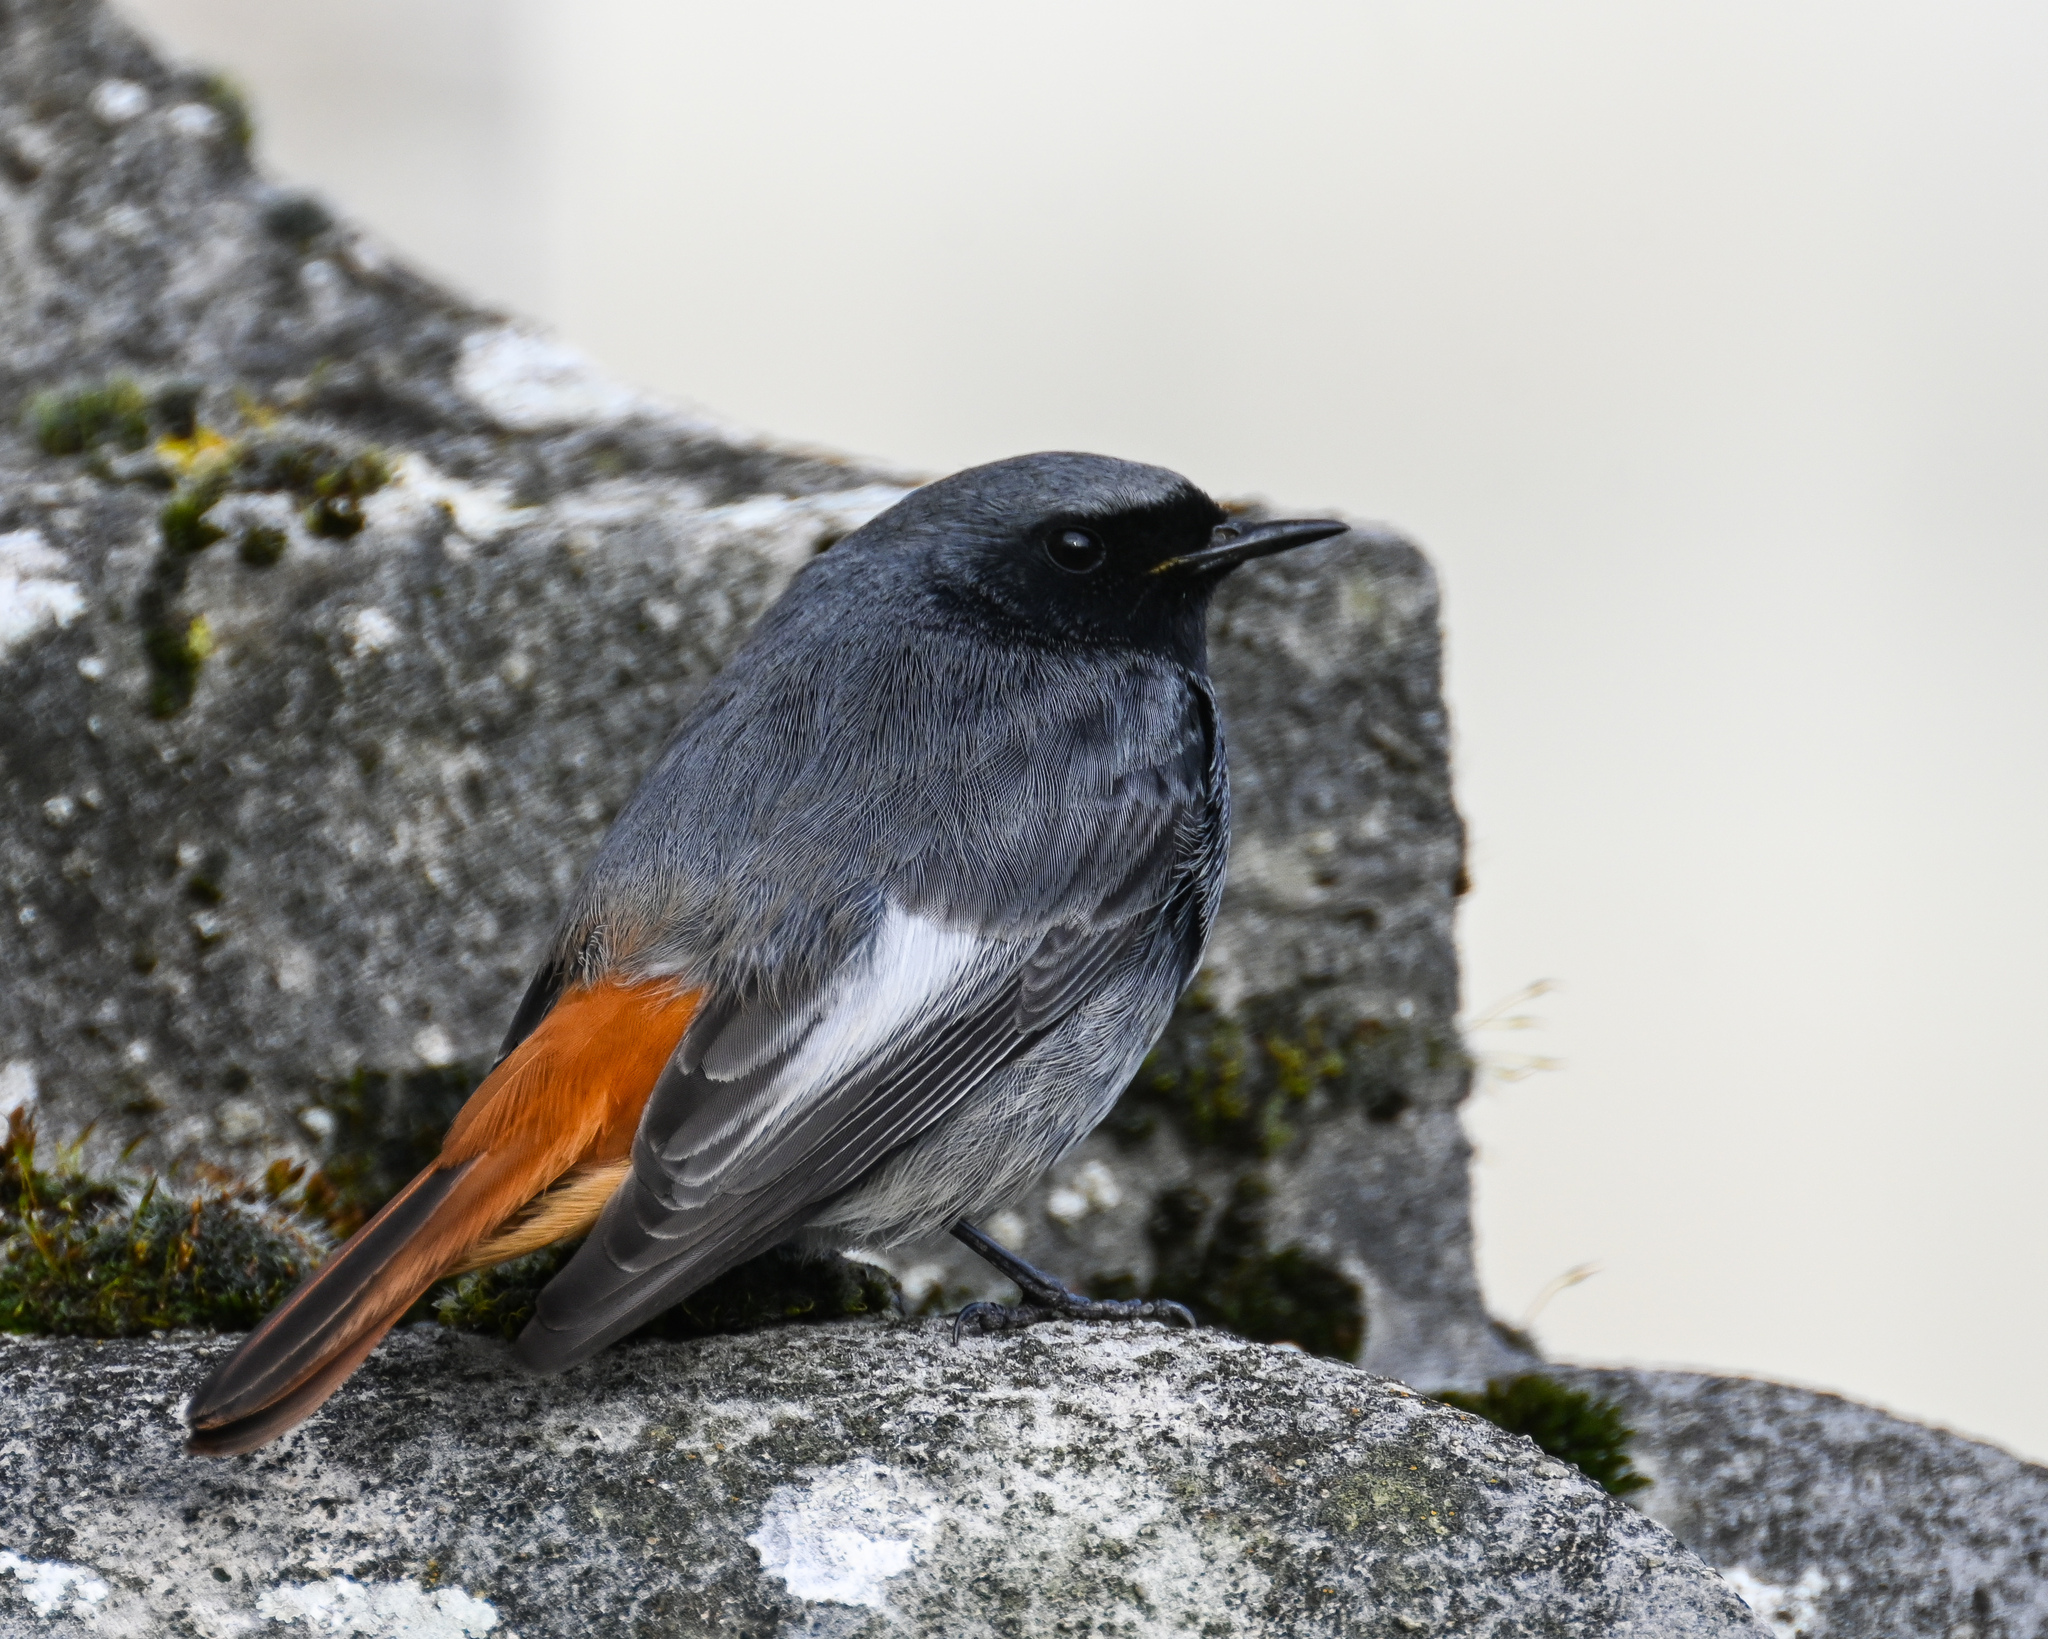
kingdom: Animalia
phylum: Chordata
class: Aves
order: Passeriformes
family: Muscicapidae
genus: Phoenicurus
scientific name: Phoenicurus ochruros
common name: Black redstart
